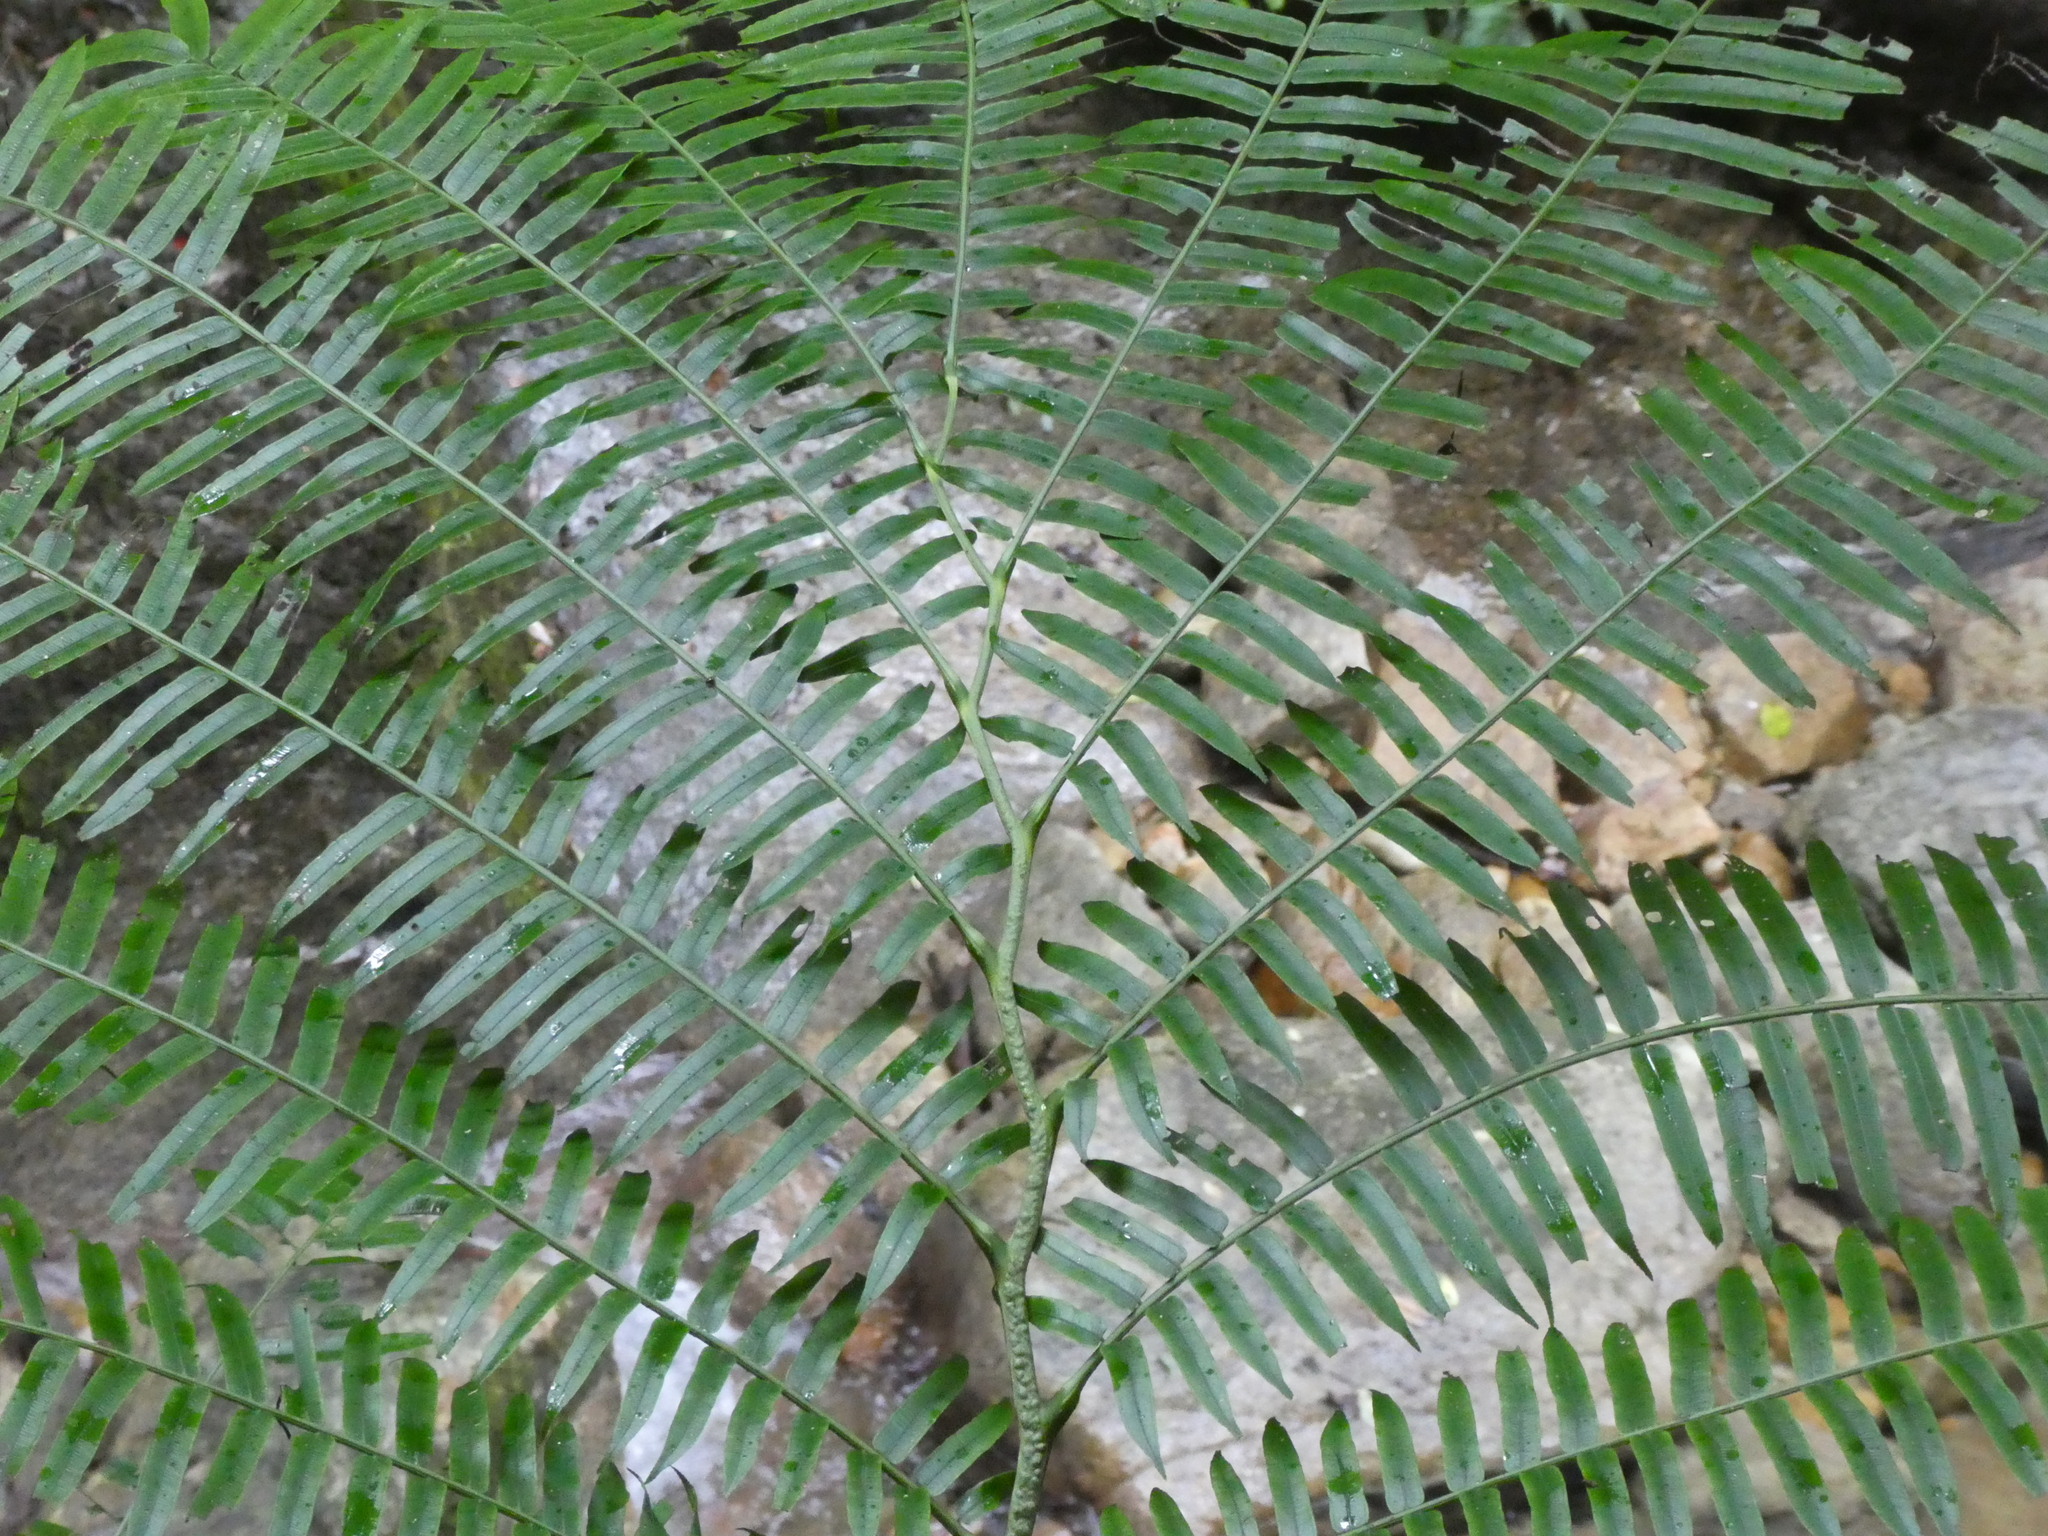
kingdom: Plantae
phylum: Tracheophyta
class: Polypodiopsida
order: Marattiales
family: Marattiaceae
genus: Angiopteris
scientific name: Angiopteris fokiensis
